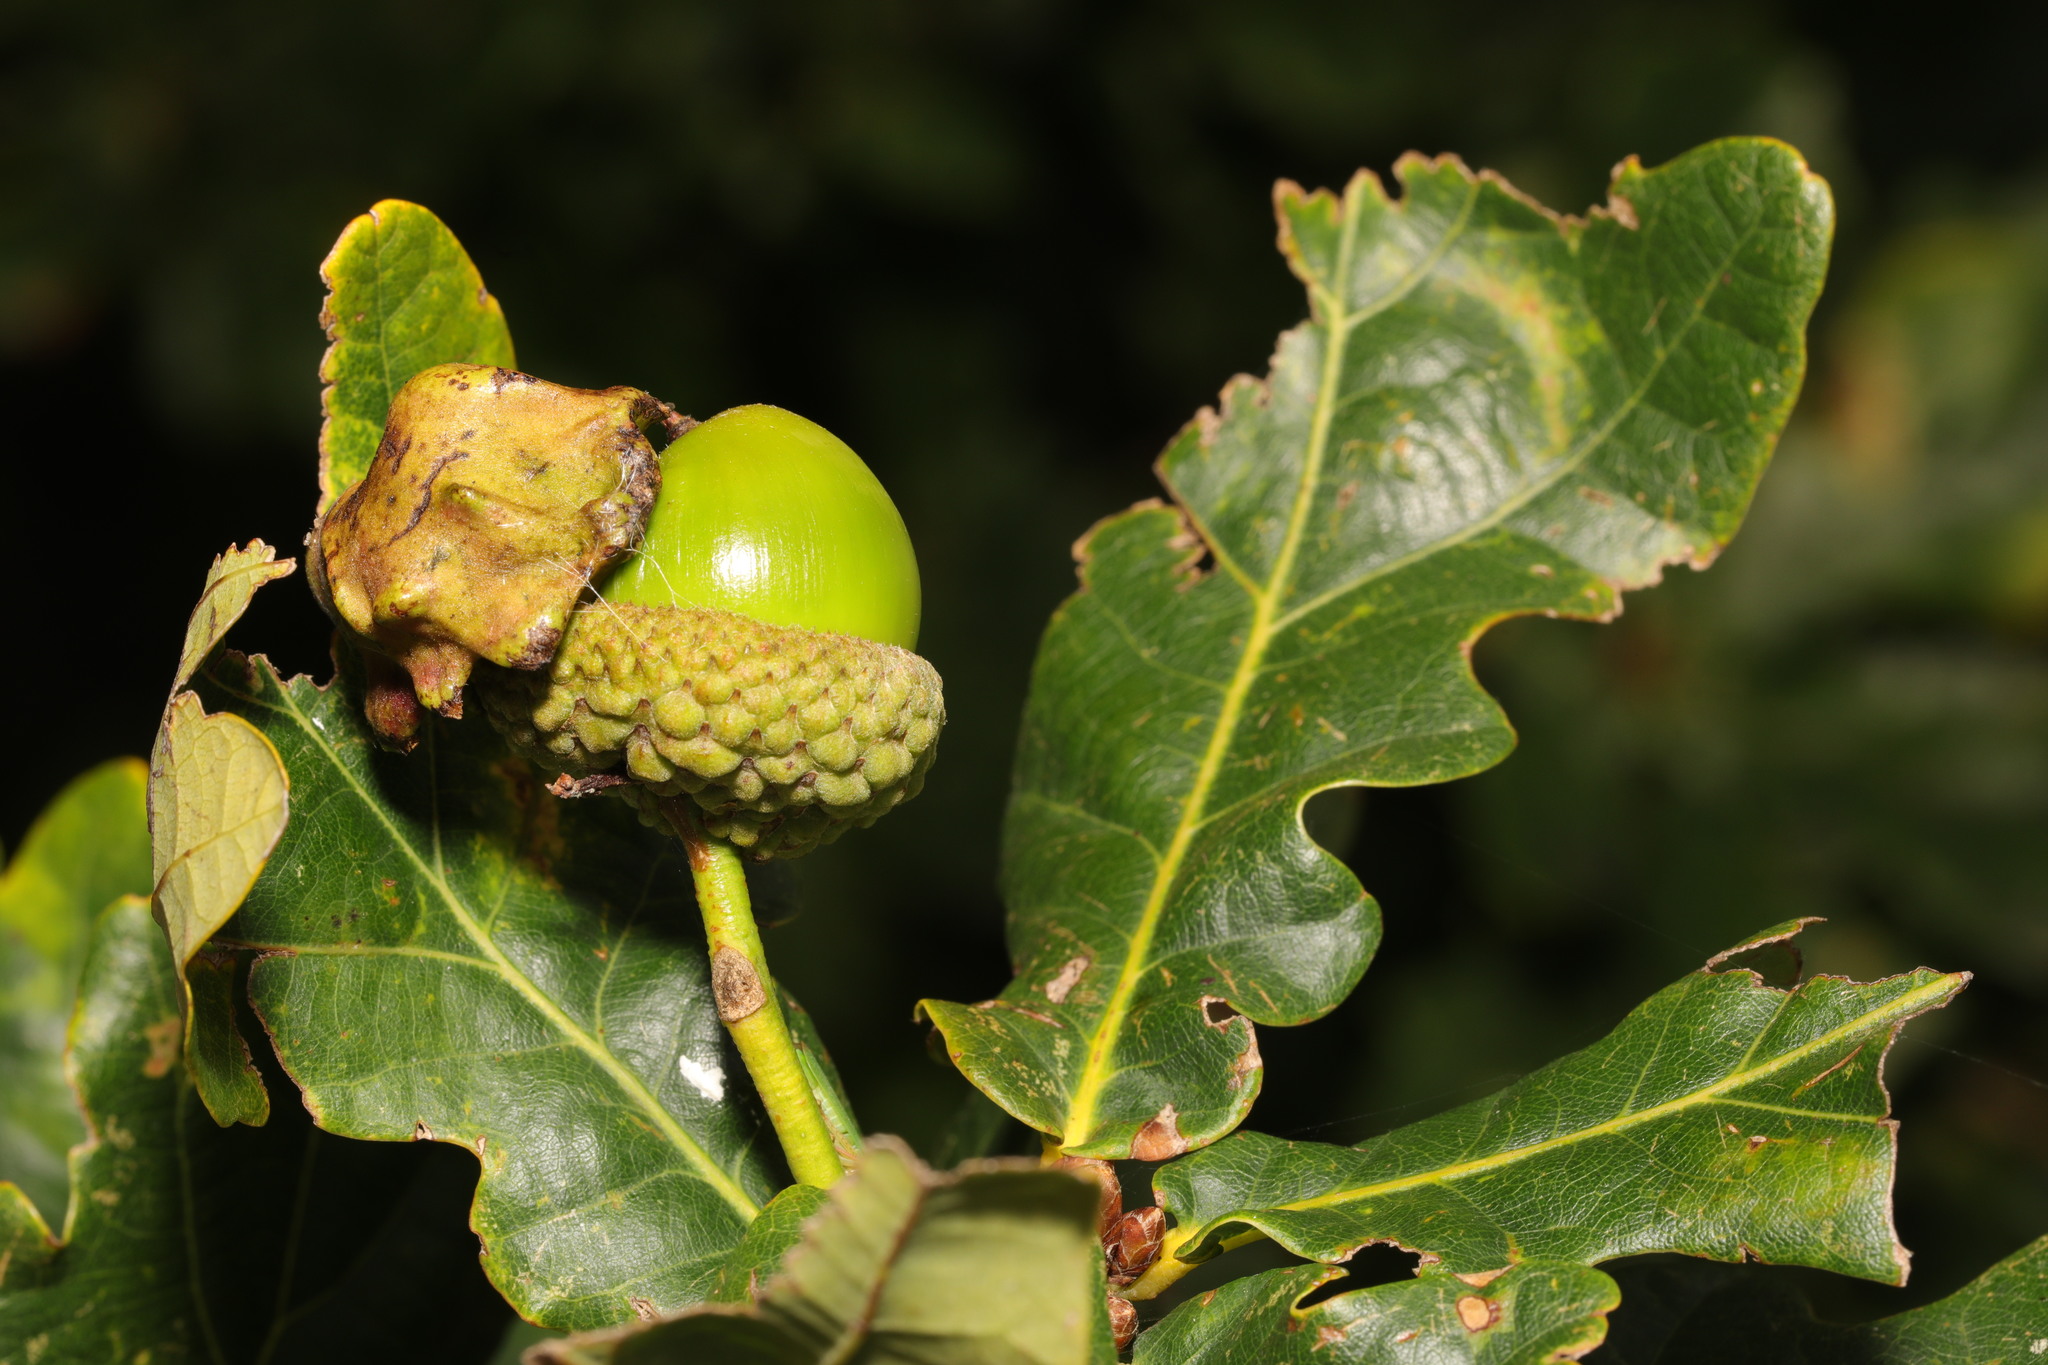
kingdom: Animalia
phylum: Arthropoda
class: Insecta
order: Hymenoptera
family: Cynipidae
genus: Andricus
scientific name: Andricus quercuscalicis
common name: Knopper gall
